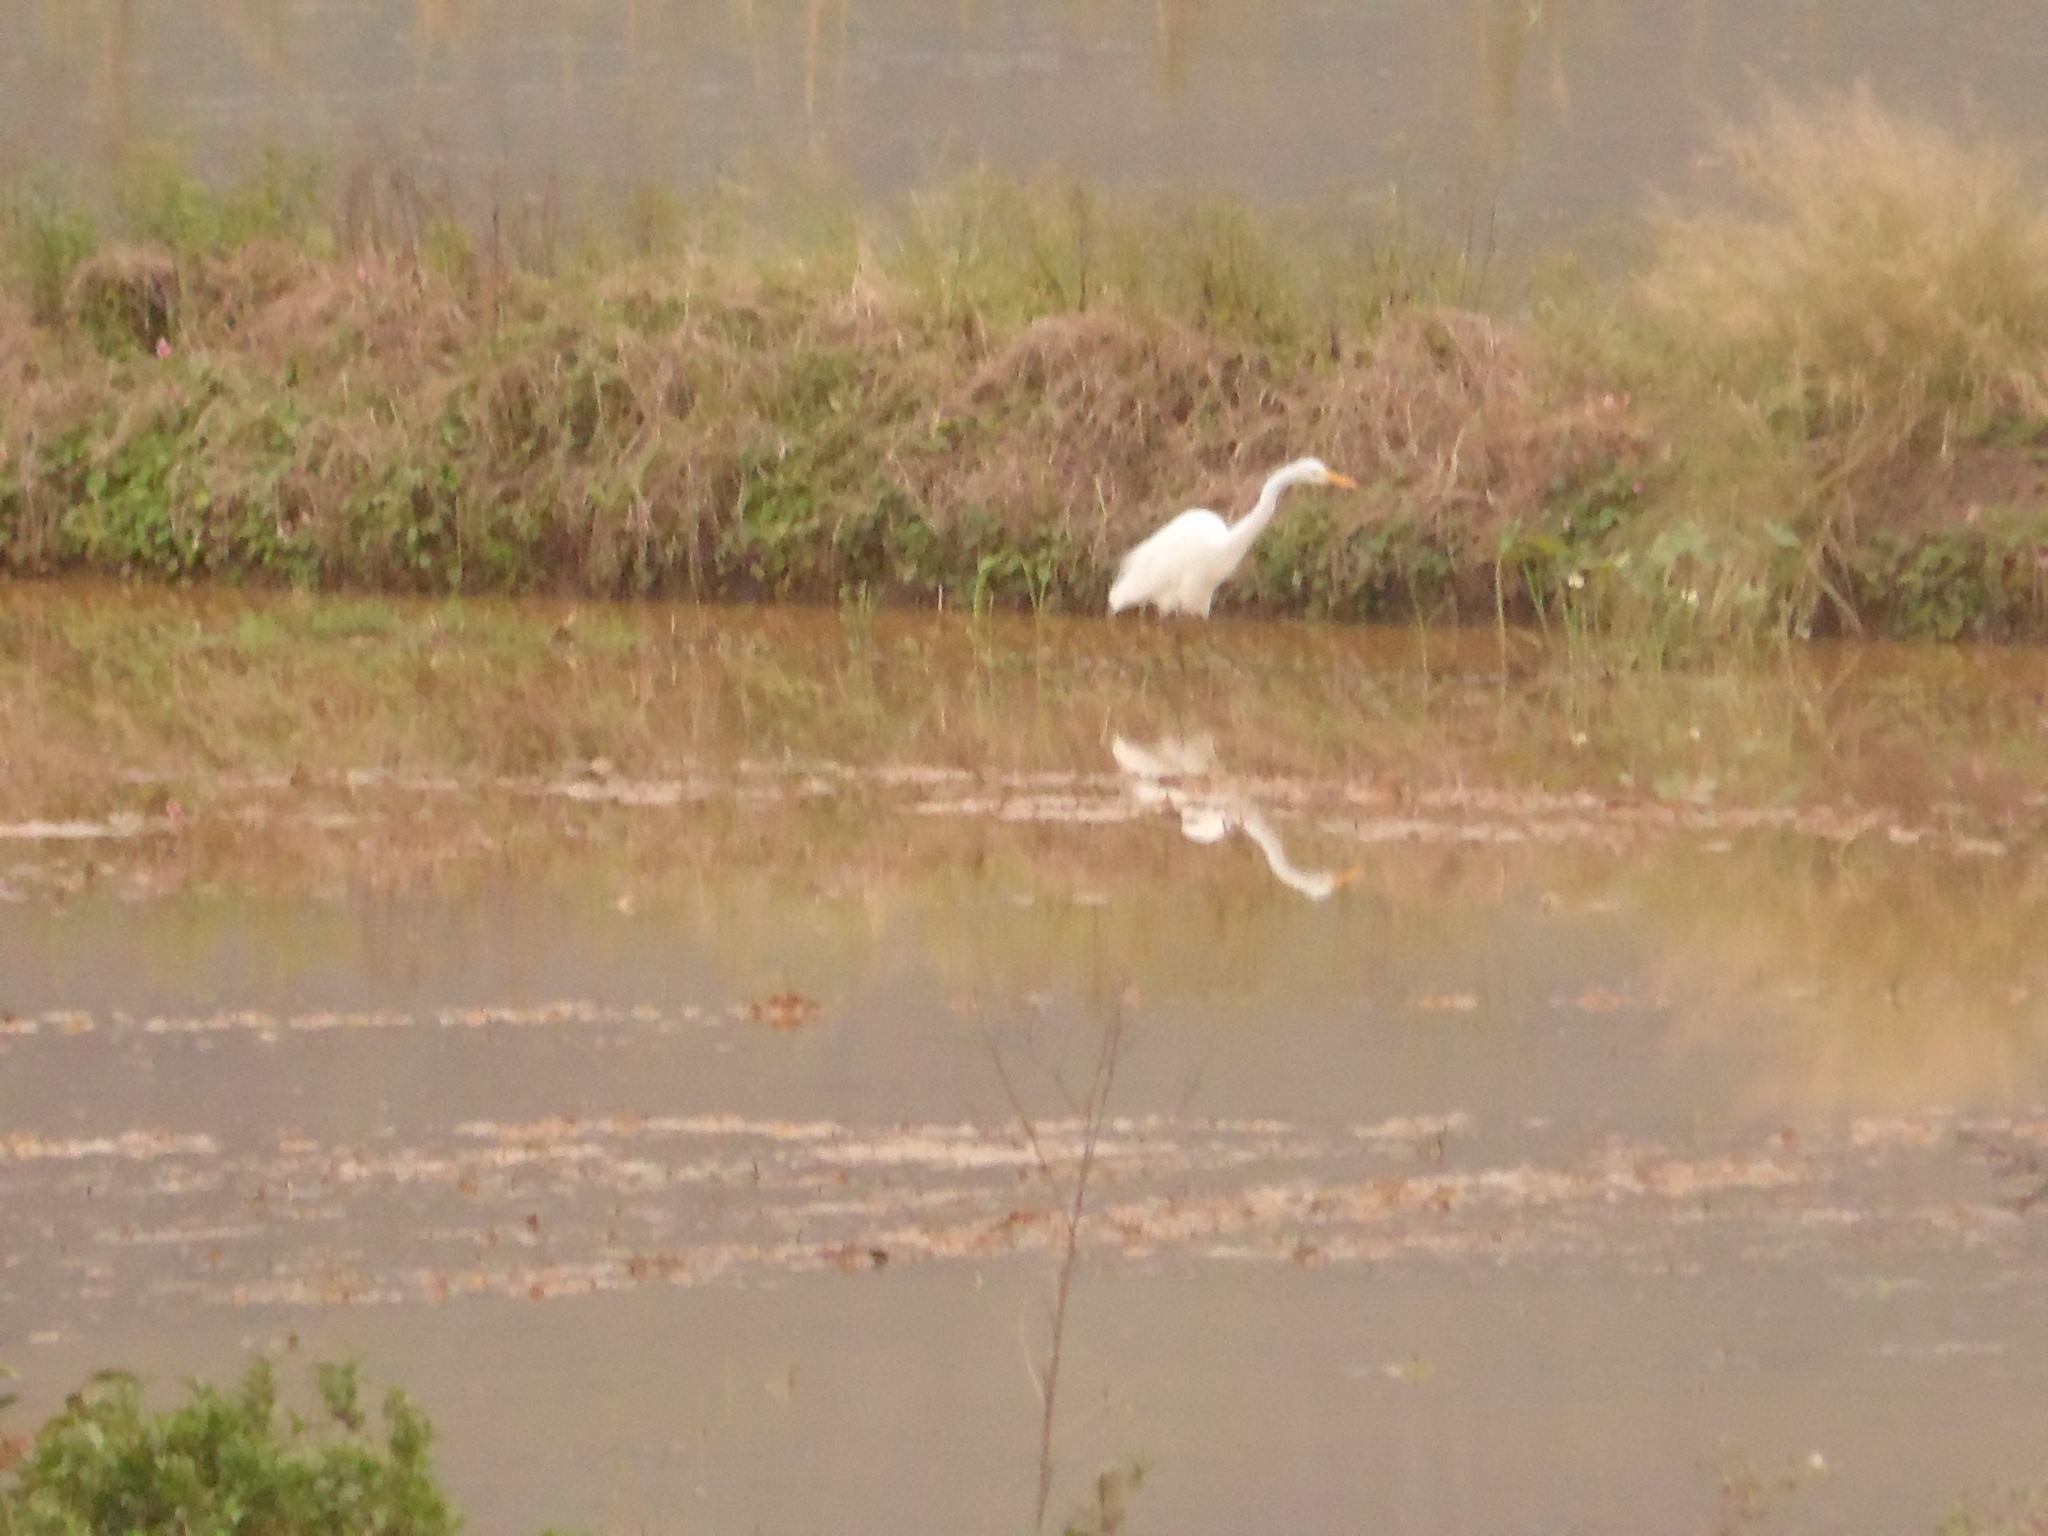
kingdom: Animalia
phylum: Chordata
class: Aves
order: Pelecaniformes
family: Ardeidae
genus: Ardea
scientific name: Ardea alba
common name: Great egret
